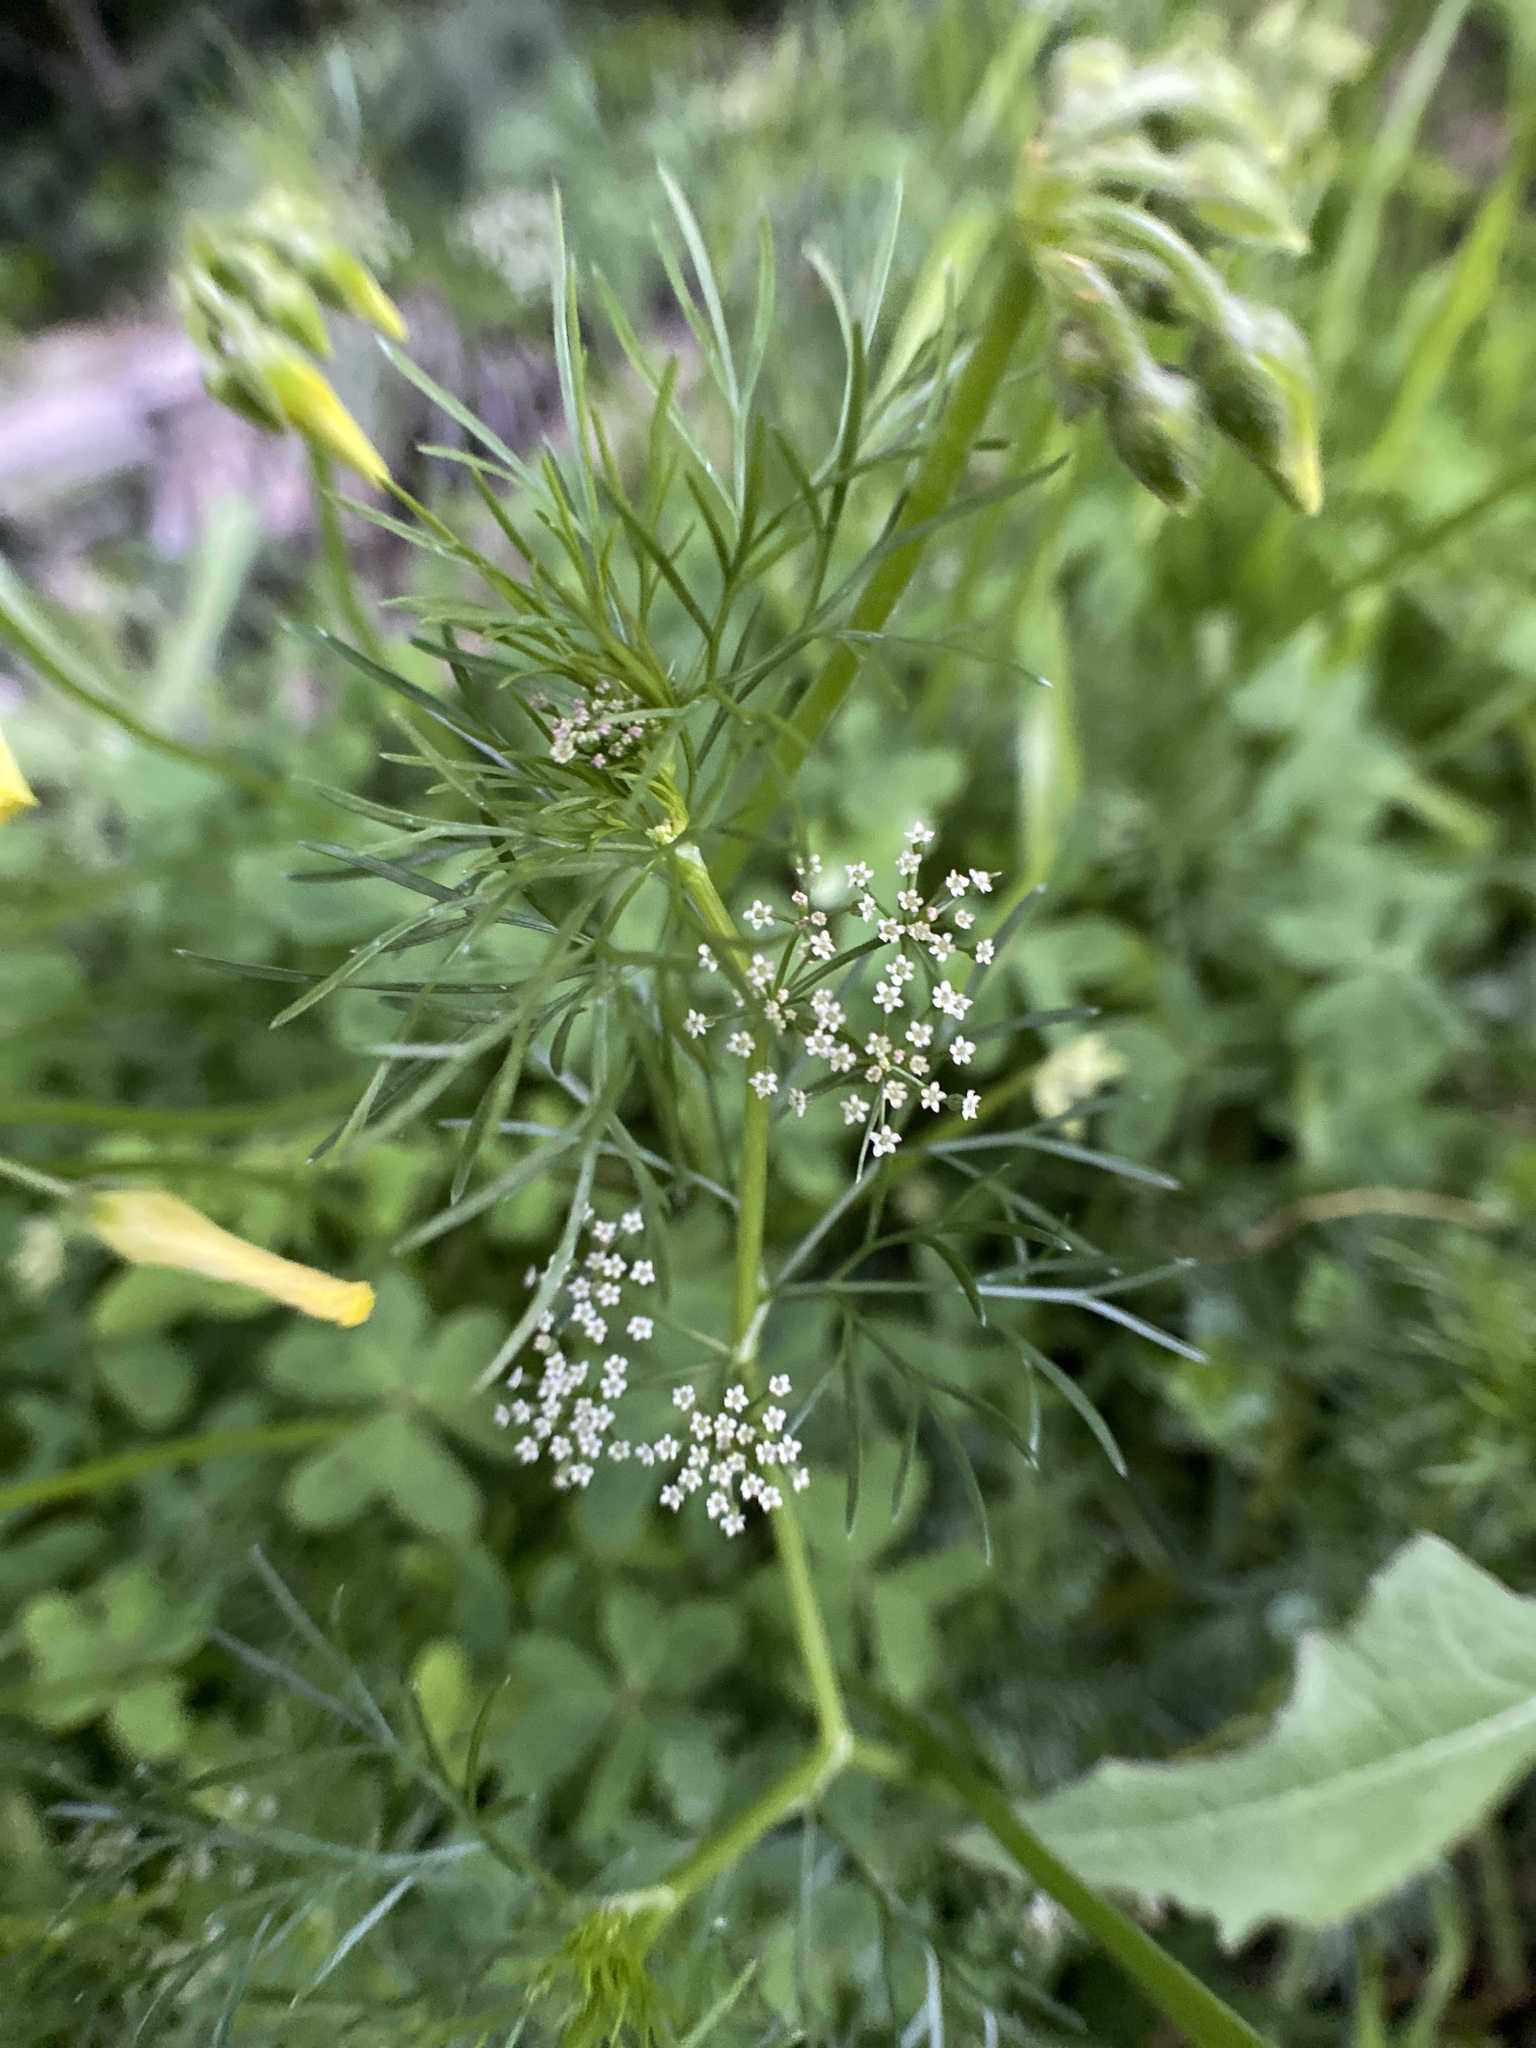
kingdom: Plantae
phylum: Tracheophyta
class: Magnoliopsida
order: Apiales
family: Apiaceae
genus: Cyclospermum
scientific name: Cyclospermum leptophyllum
